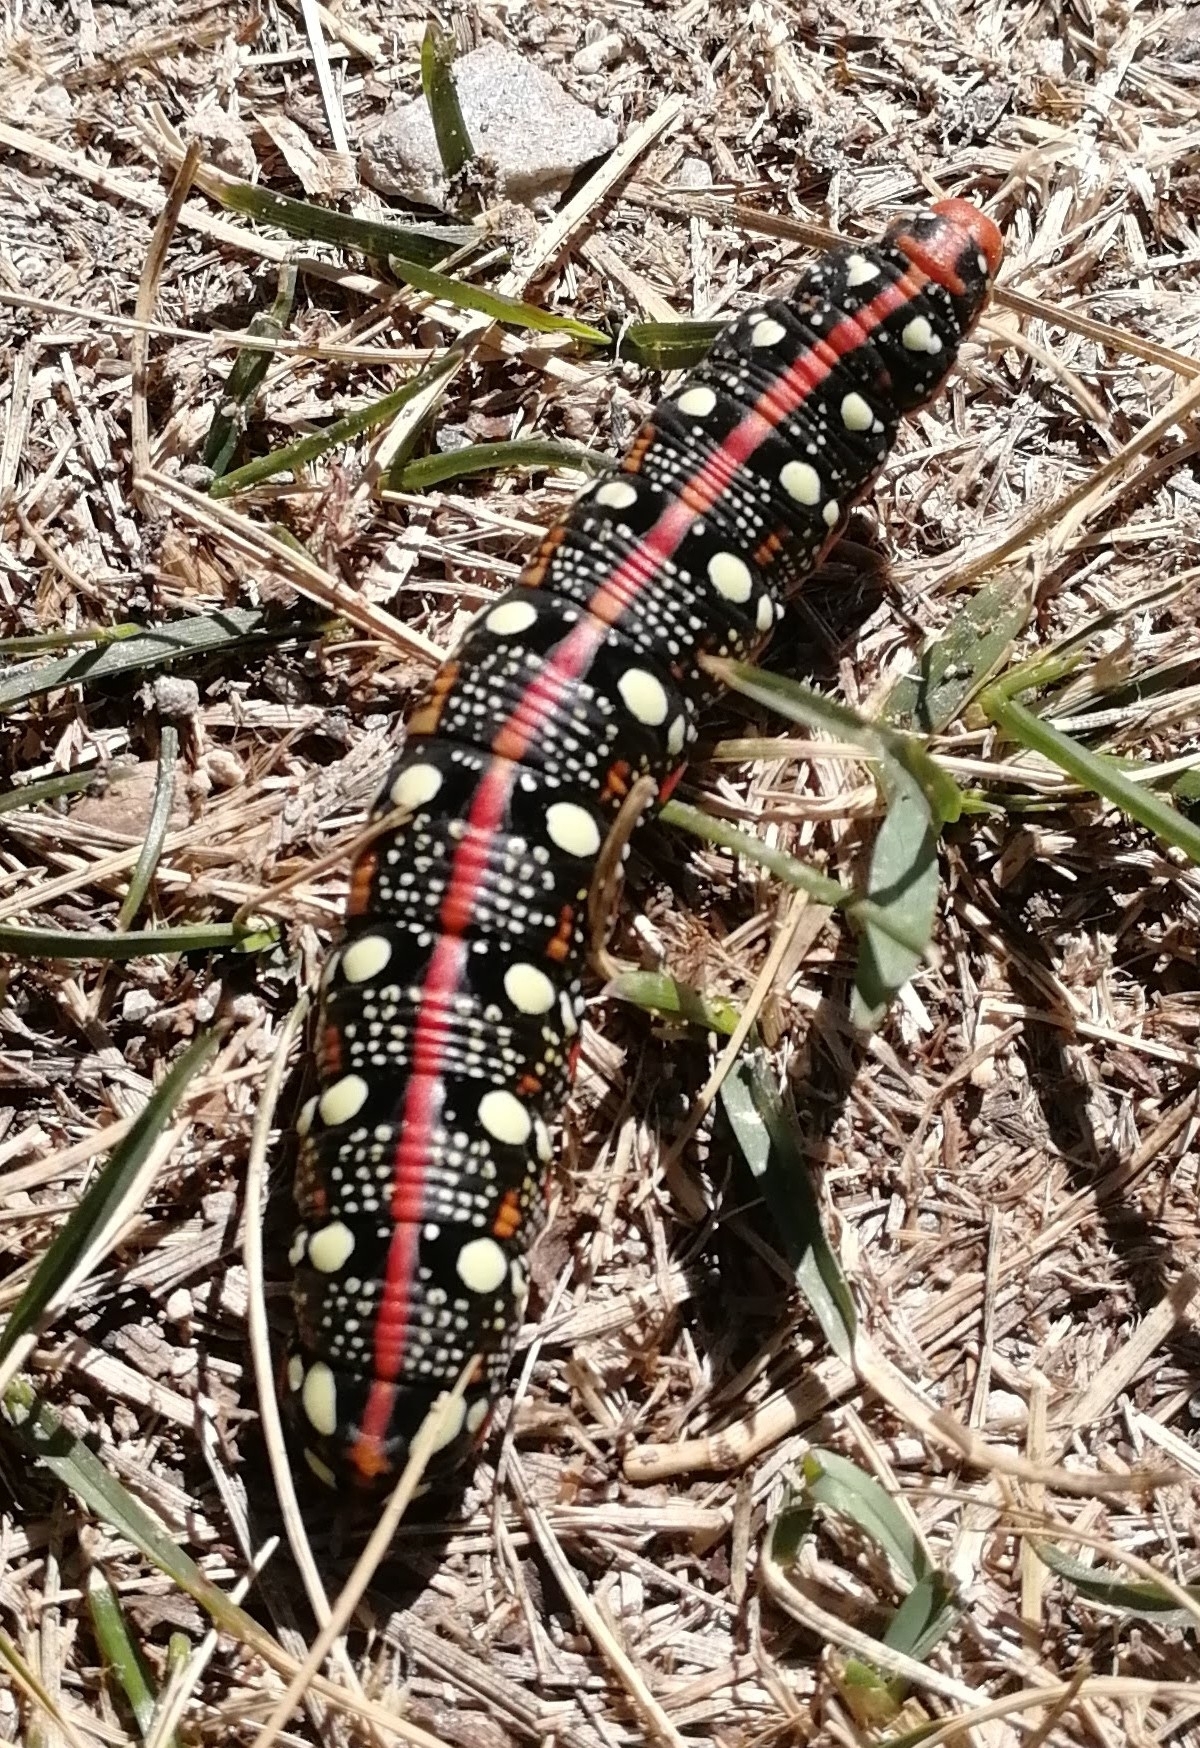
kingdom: Animalia
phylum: Arthropoda
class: Insecta
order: Lepidoptera
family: Sphingidae
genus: Hyles
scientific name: Hyles euphorbiae
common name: Spurge hawk-moth
